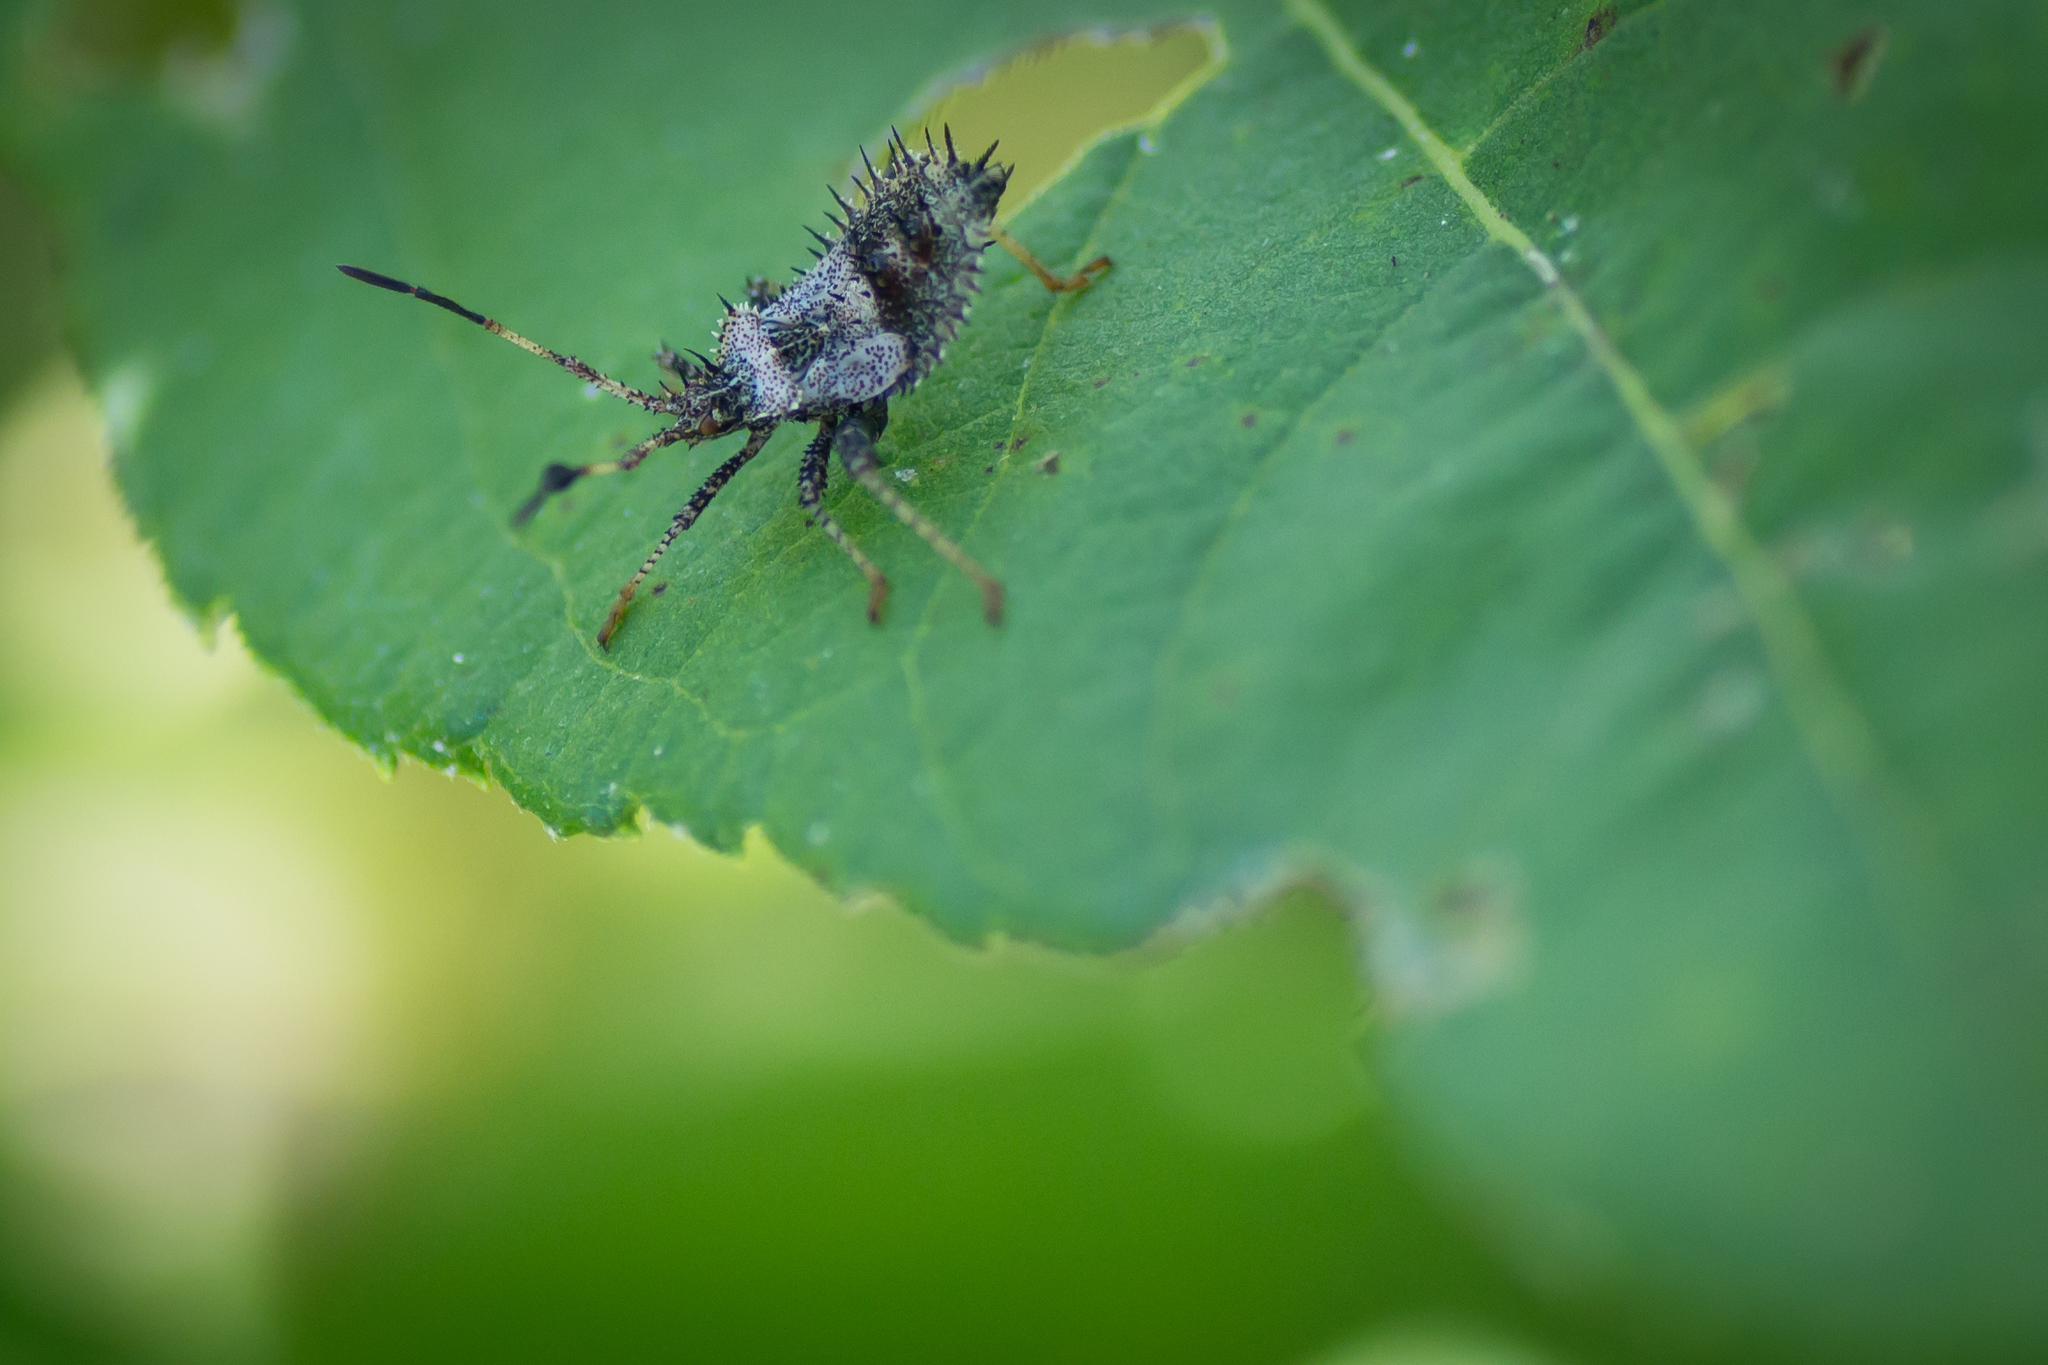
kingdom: Animalia
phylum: Arthropoda
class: Insecta
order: Hemiptera
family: Coreidae
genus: Euthochtha
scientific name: Euthochtha galeator
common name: Helmeted squash bug
